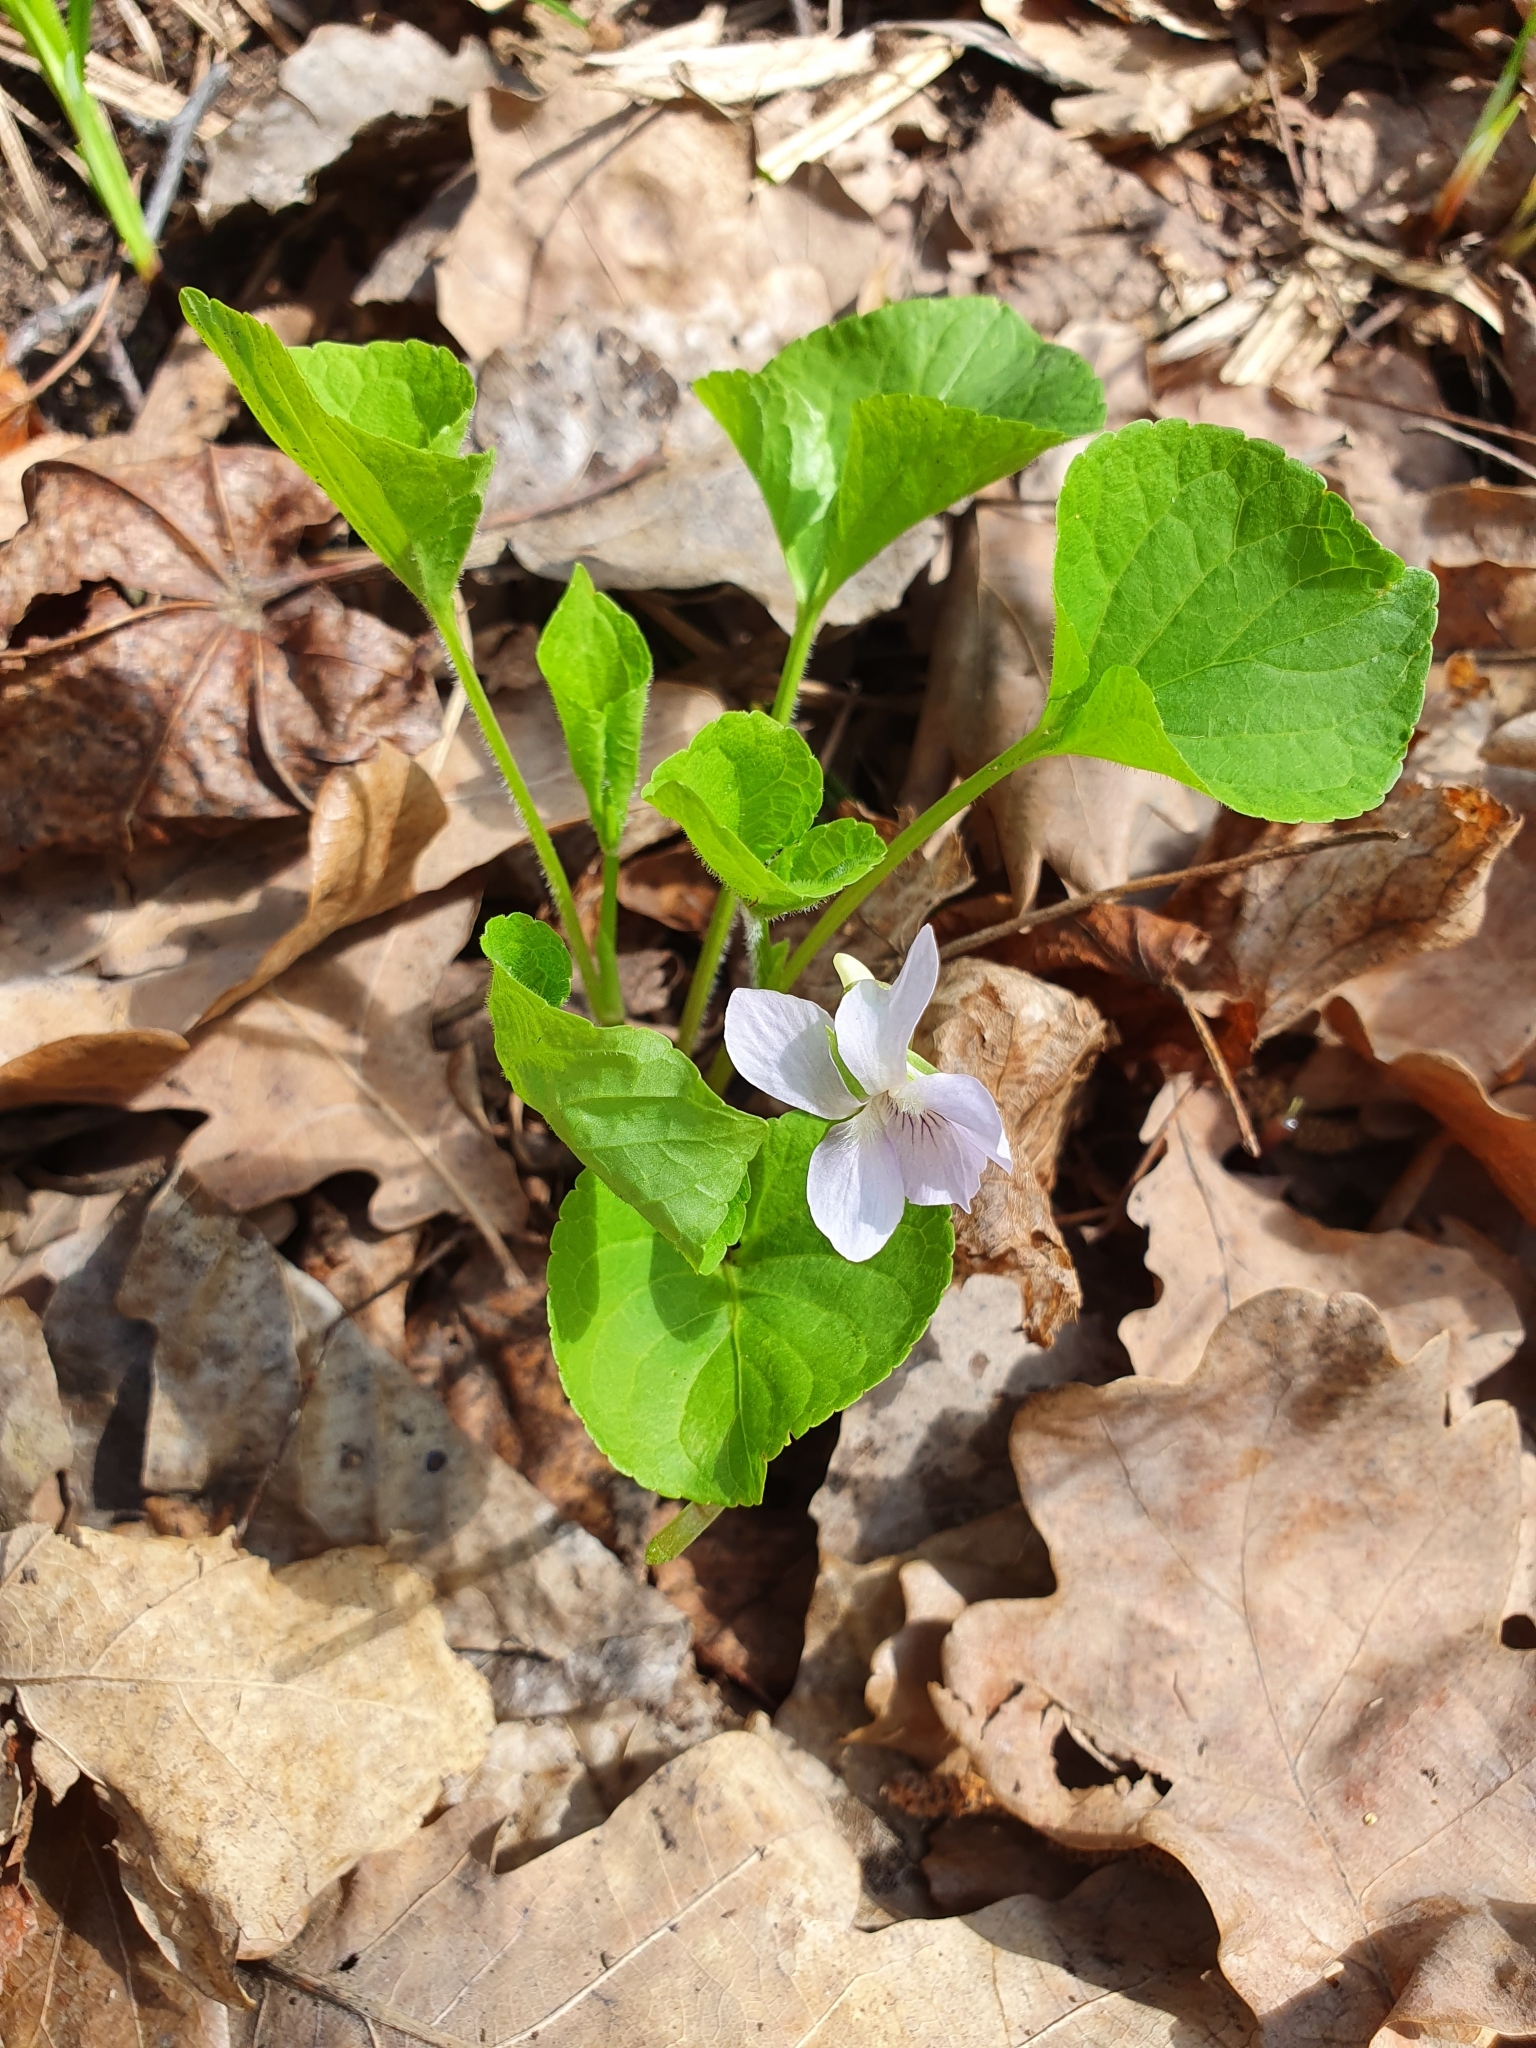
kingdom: Plantae
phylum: Tracheophyta
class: Magnoliopsida
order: Malpighiales
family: Violaceae
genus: Viola
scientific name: Viola mirabilis
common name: Wonder violet
